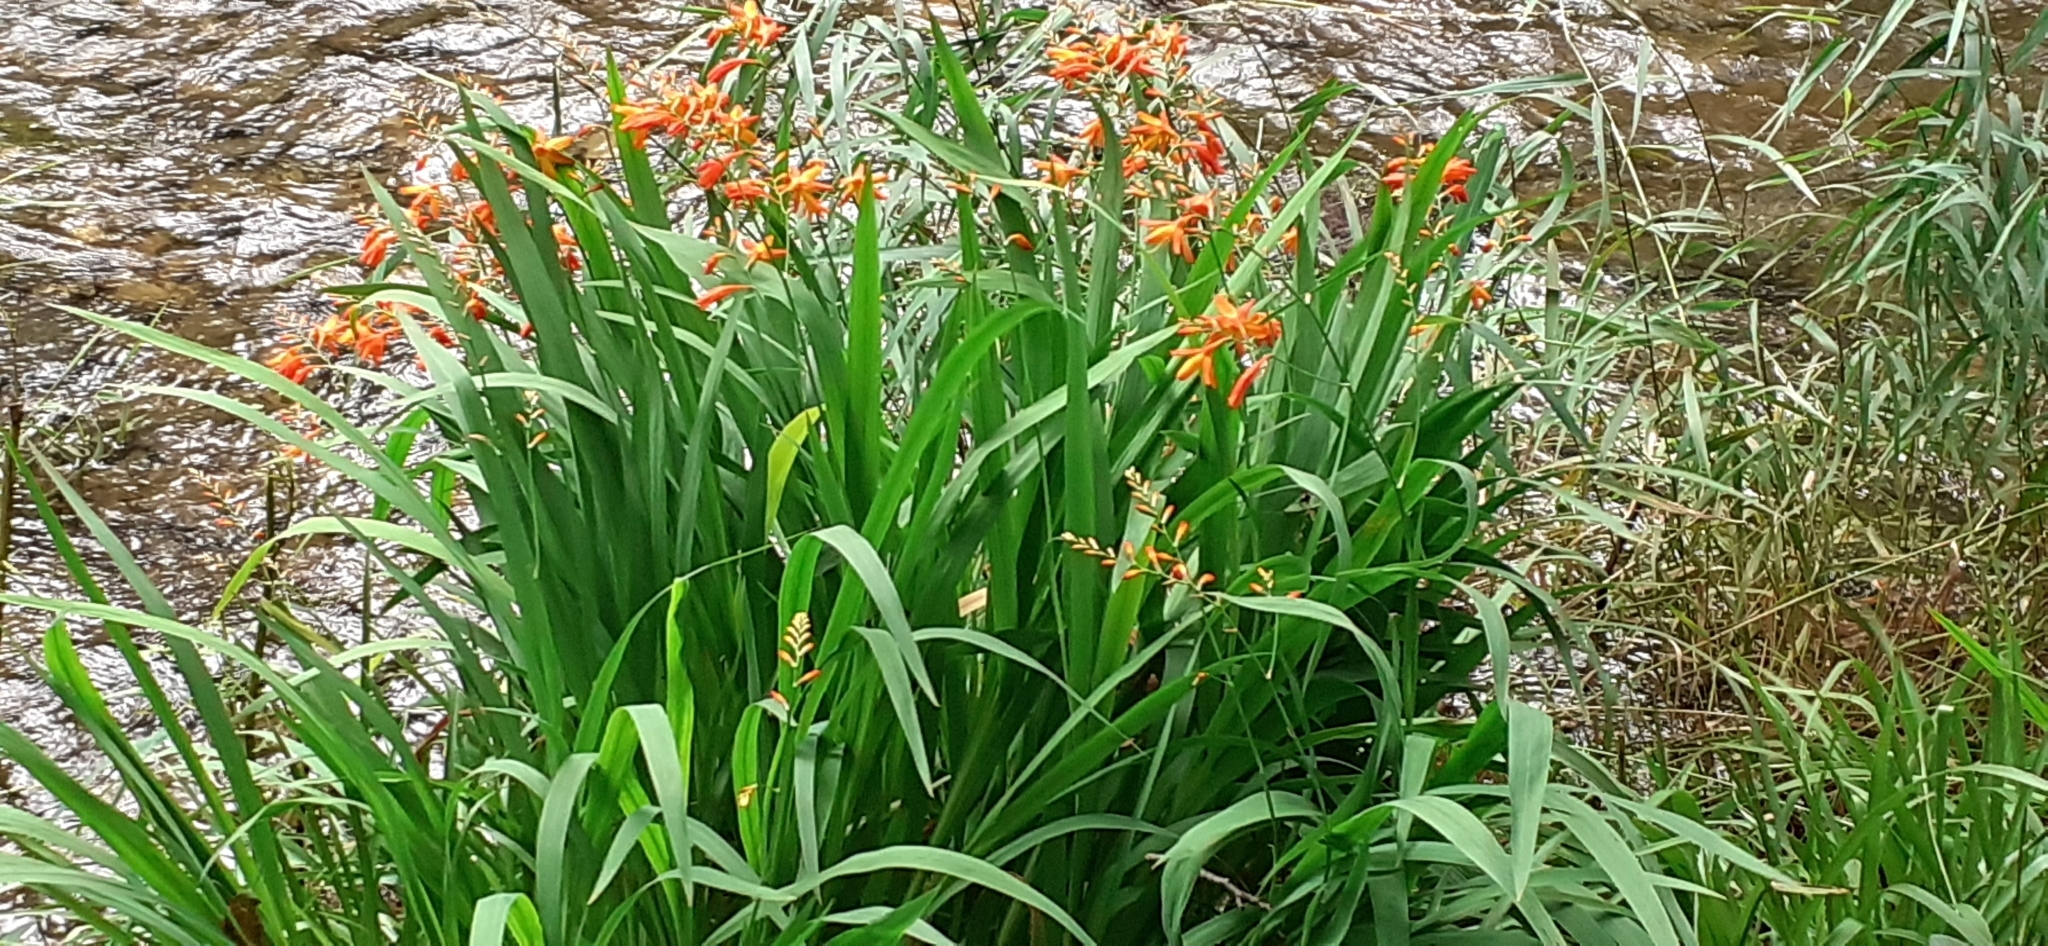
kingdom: Plantae
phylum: Tracheophyta
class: Liliopsida
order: Asparagales
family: Iridaceae
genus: Crocosmia
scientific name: Crocosmia crocosmiiflora
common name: Montbretia
